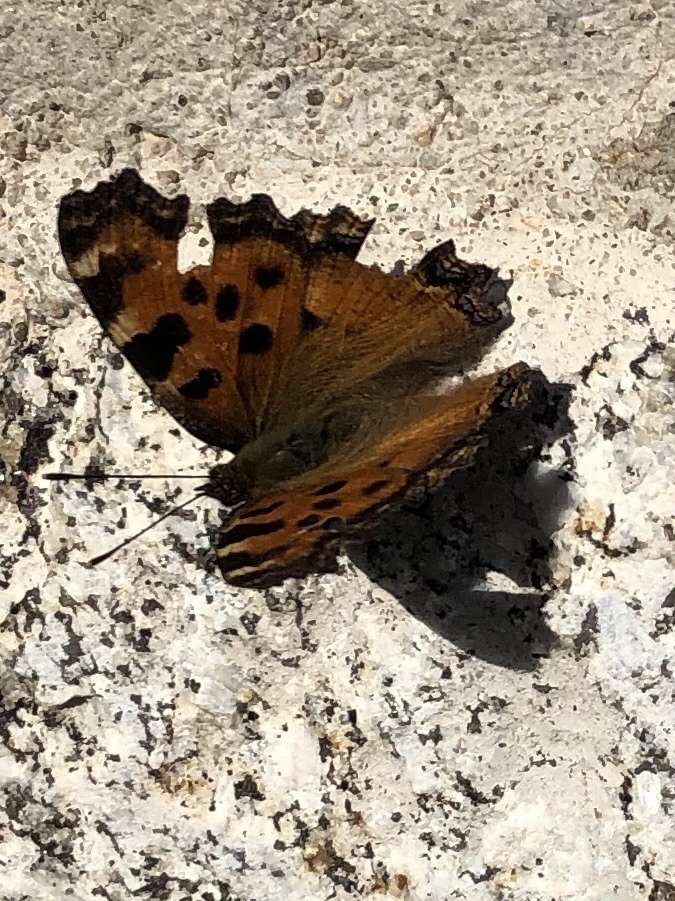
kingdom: Animalia
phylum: Arthropoda
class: Insecta
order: Lepidoptera
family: Nymphalidae
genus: Nymphalis
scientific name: Nymphalis polychloros
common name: Large tortoiseshell
